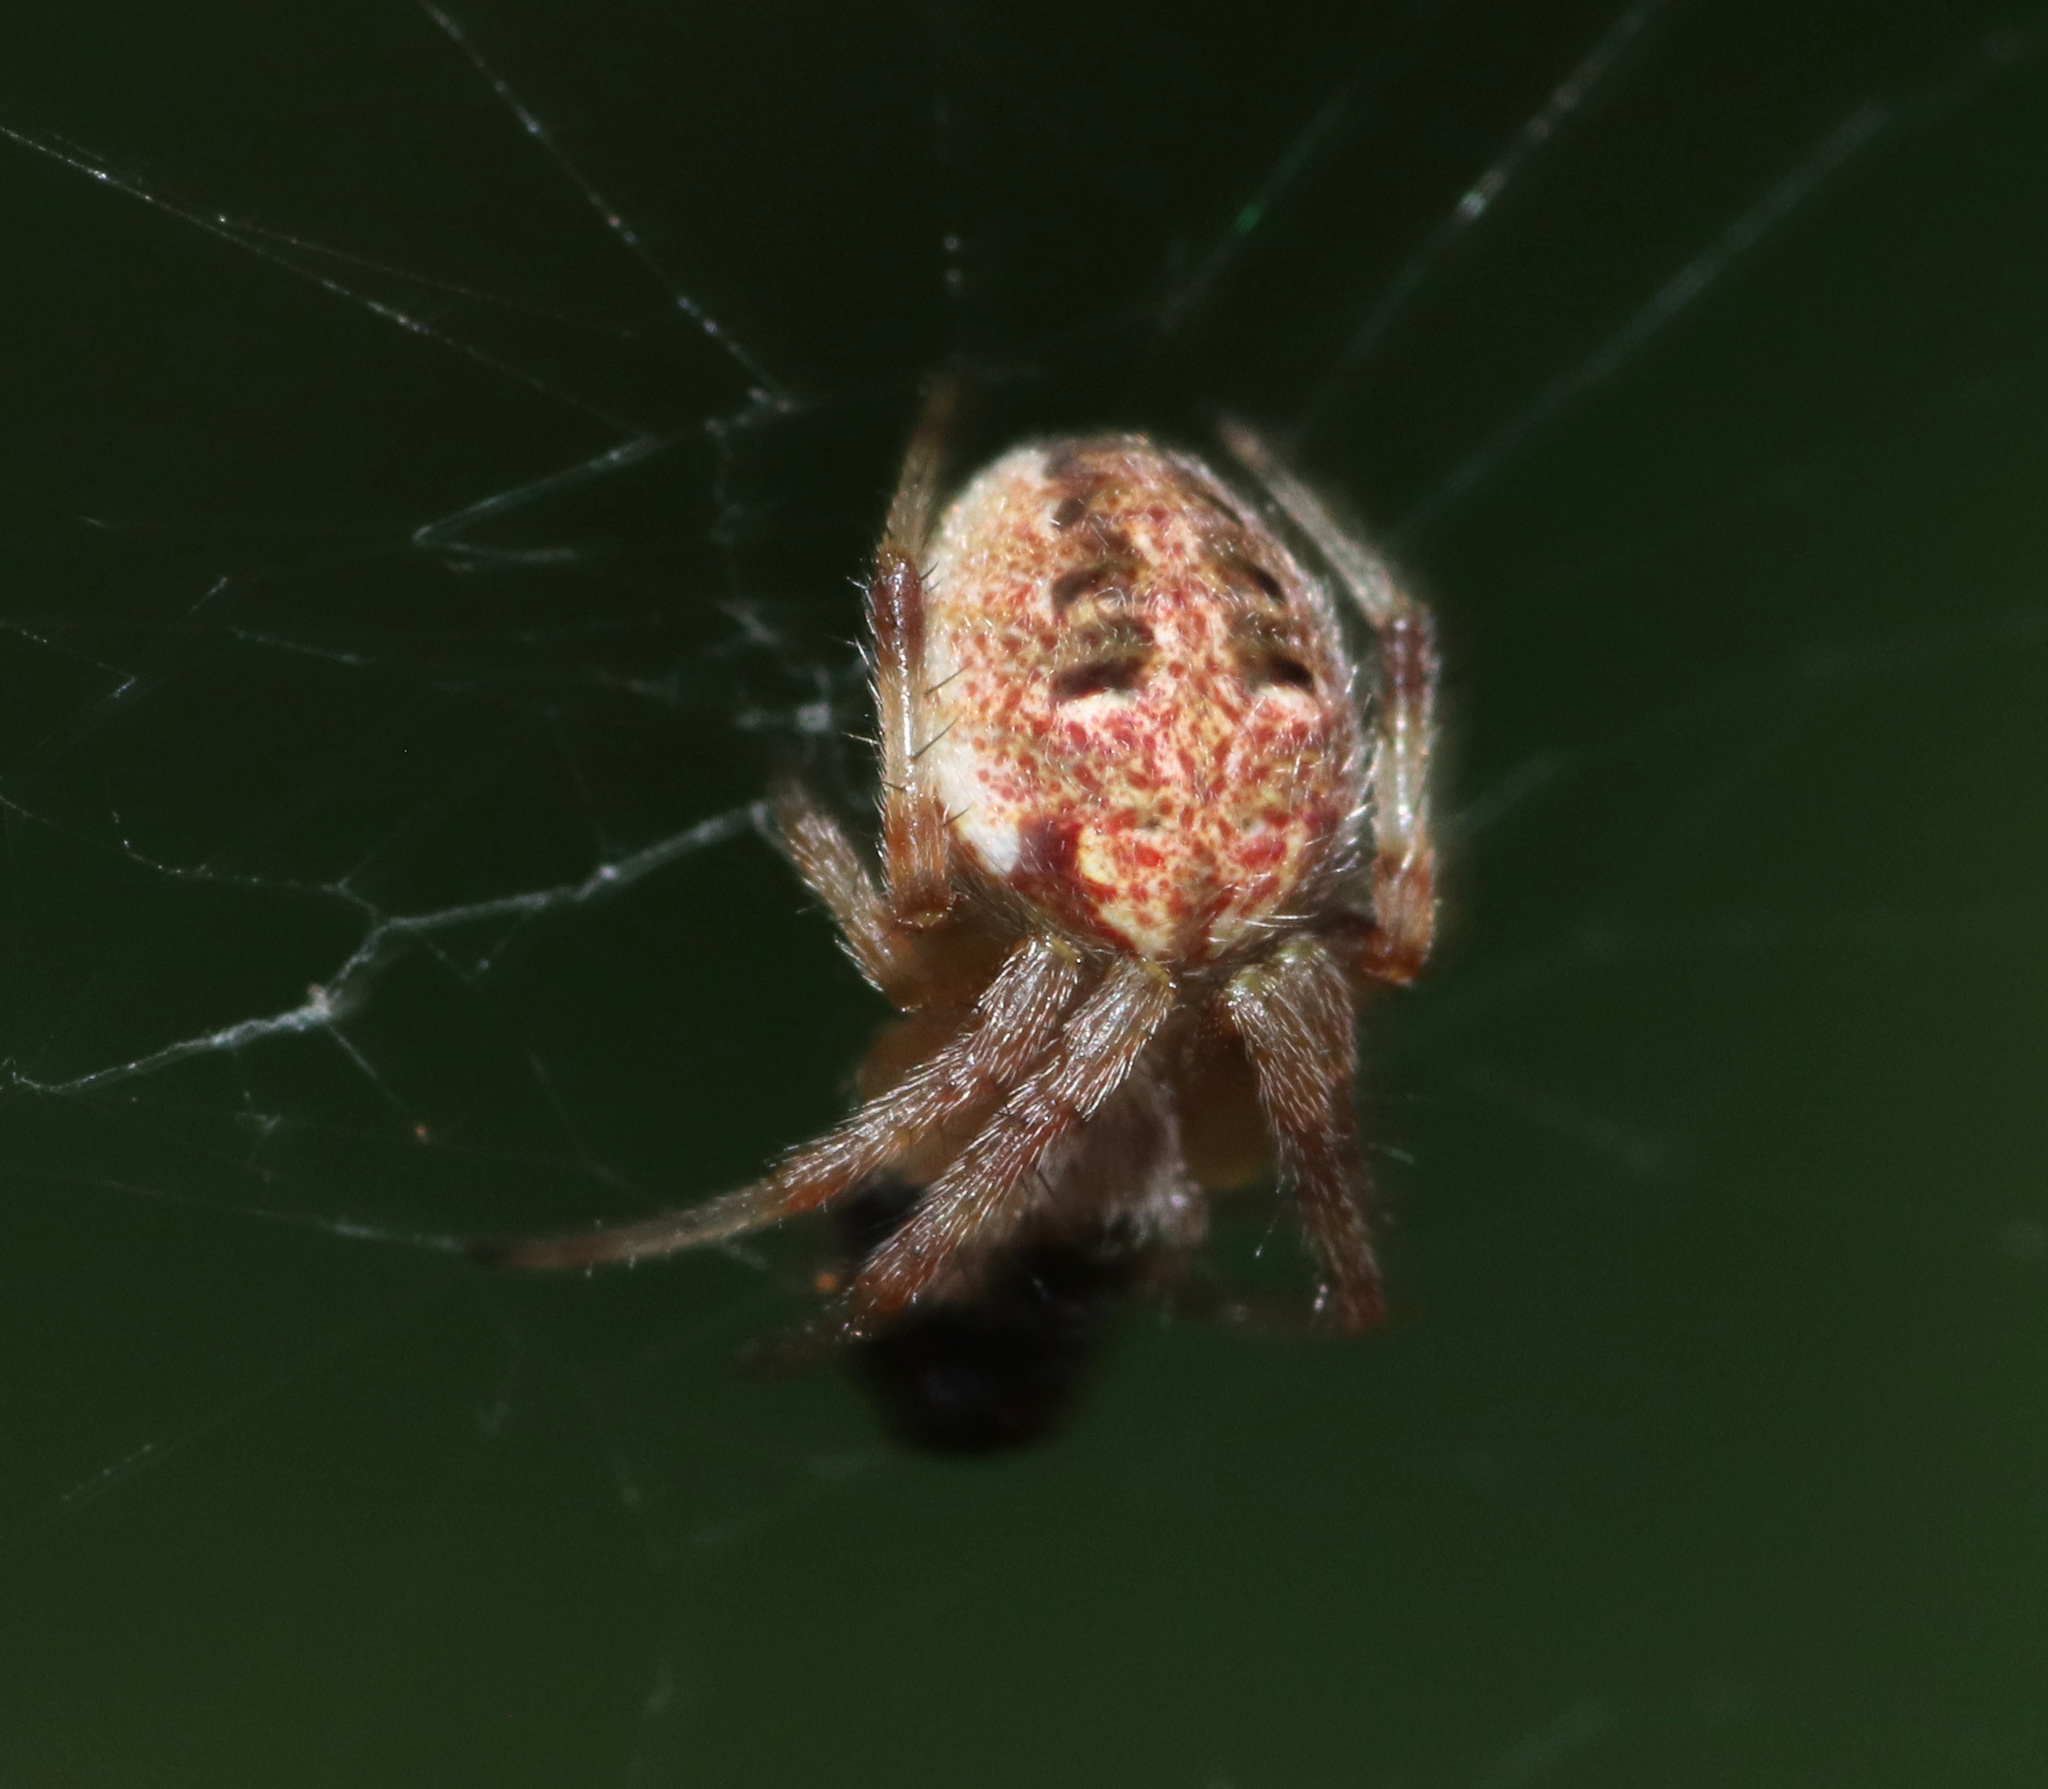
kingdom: Animalia
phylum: Arthropoda
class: Arachnida
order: Araneae
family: Araneidae
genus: Neoscona
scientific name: Neoscona arabesca
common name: Orb weavers
